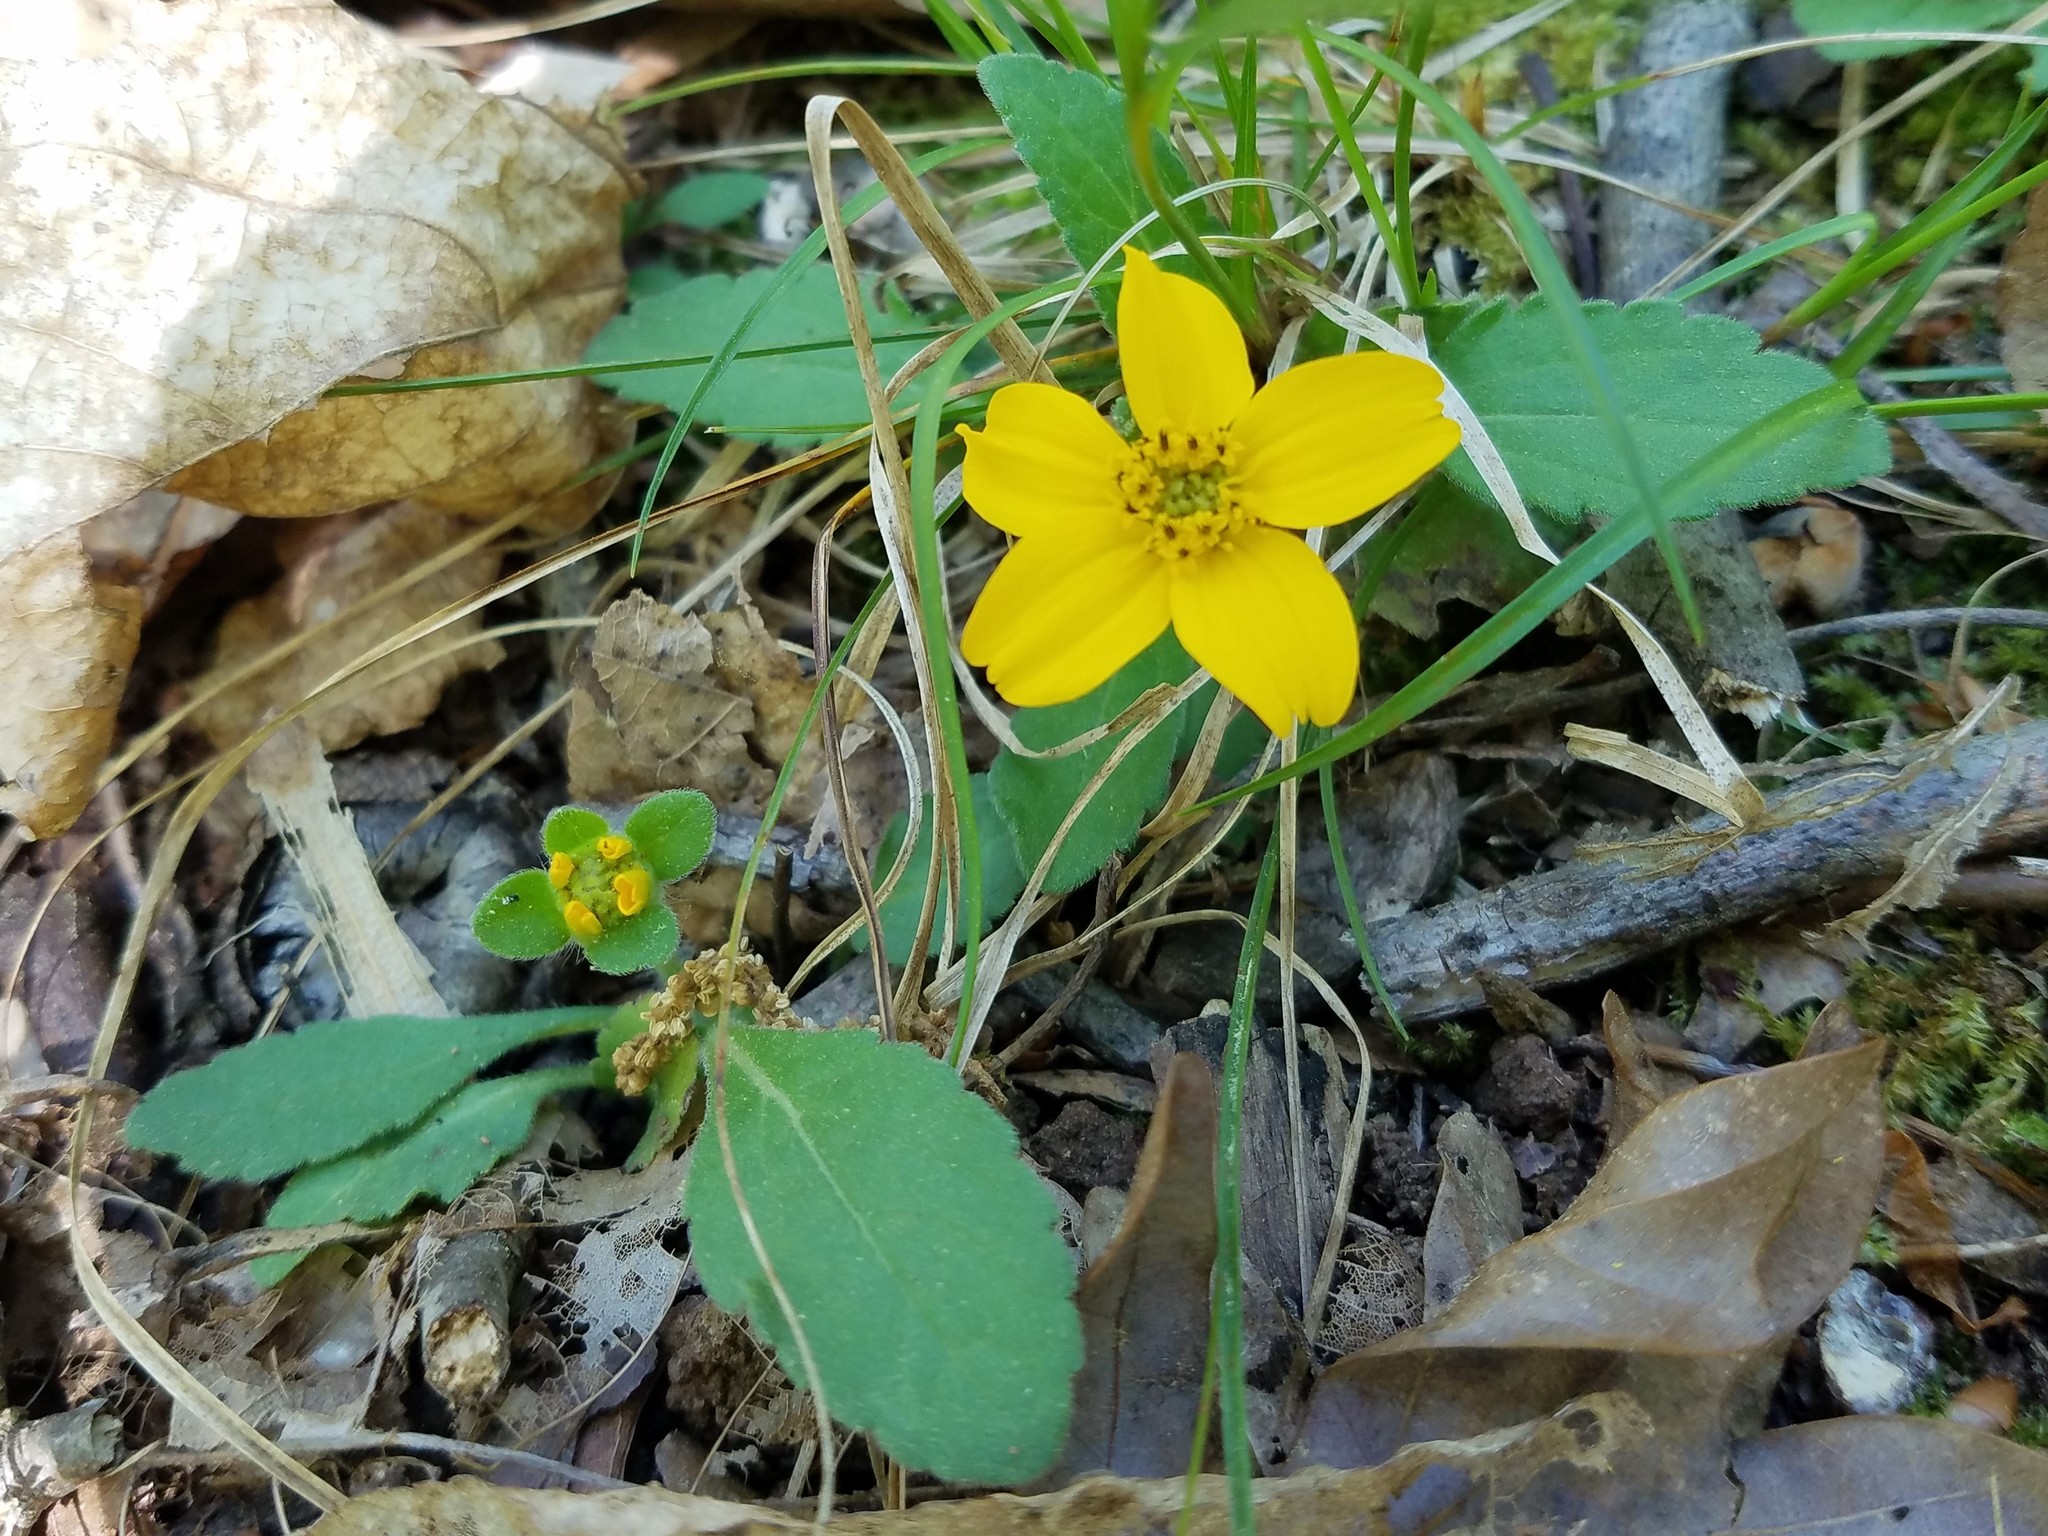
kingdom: Plantae
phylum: Tracheophyta
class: Magnoliopsida
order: Asterales
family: Asteraceae
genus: Chrysogonum
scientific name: Chrysogonum virginianum
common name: Golden-knee
